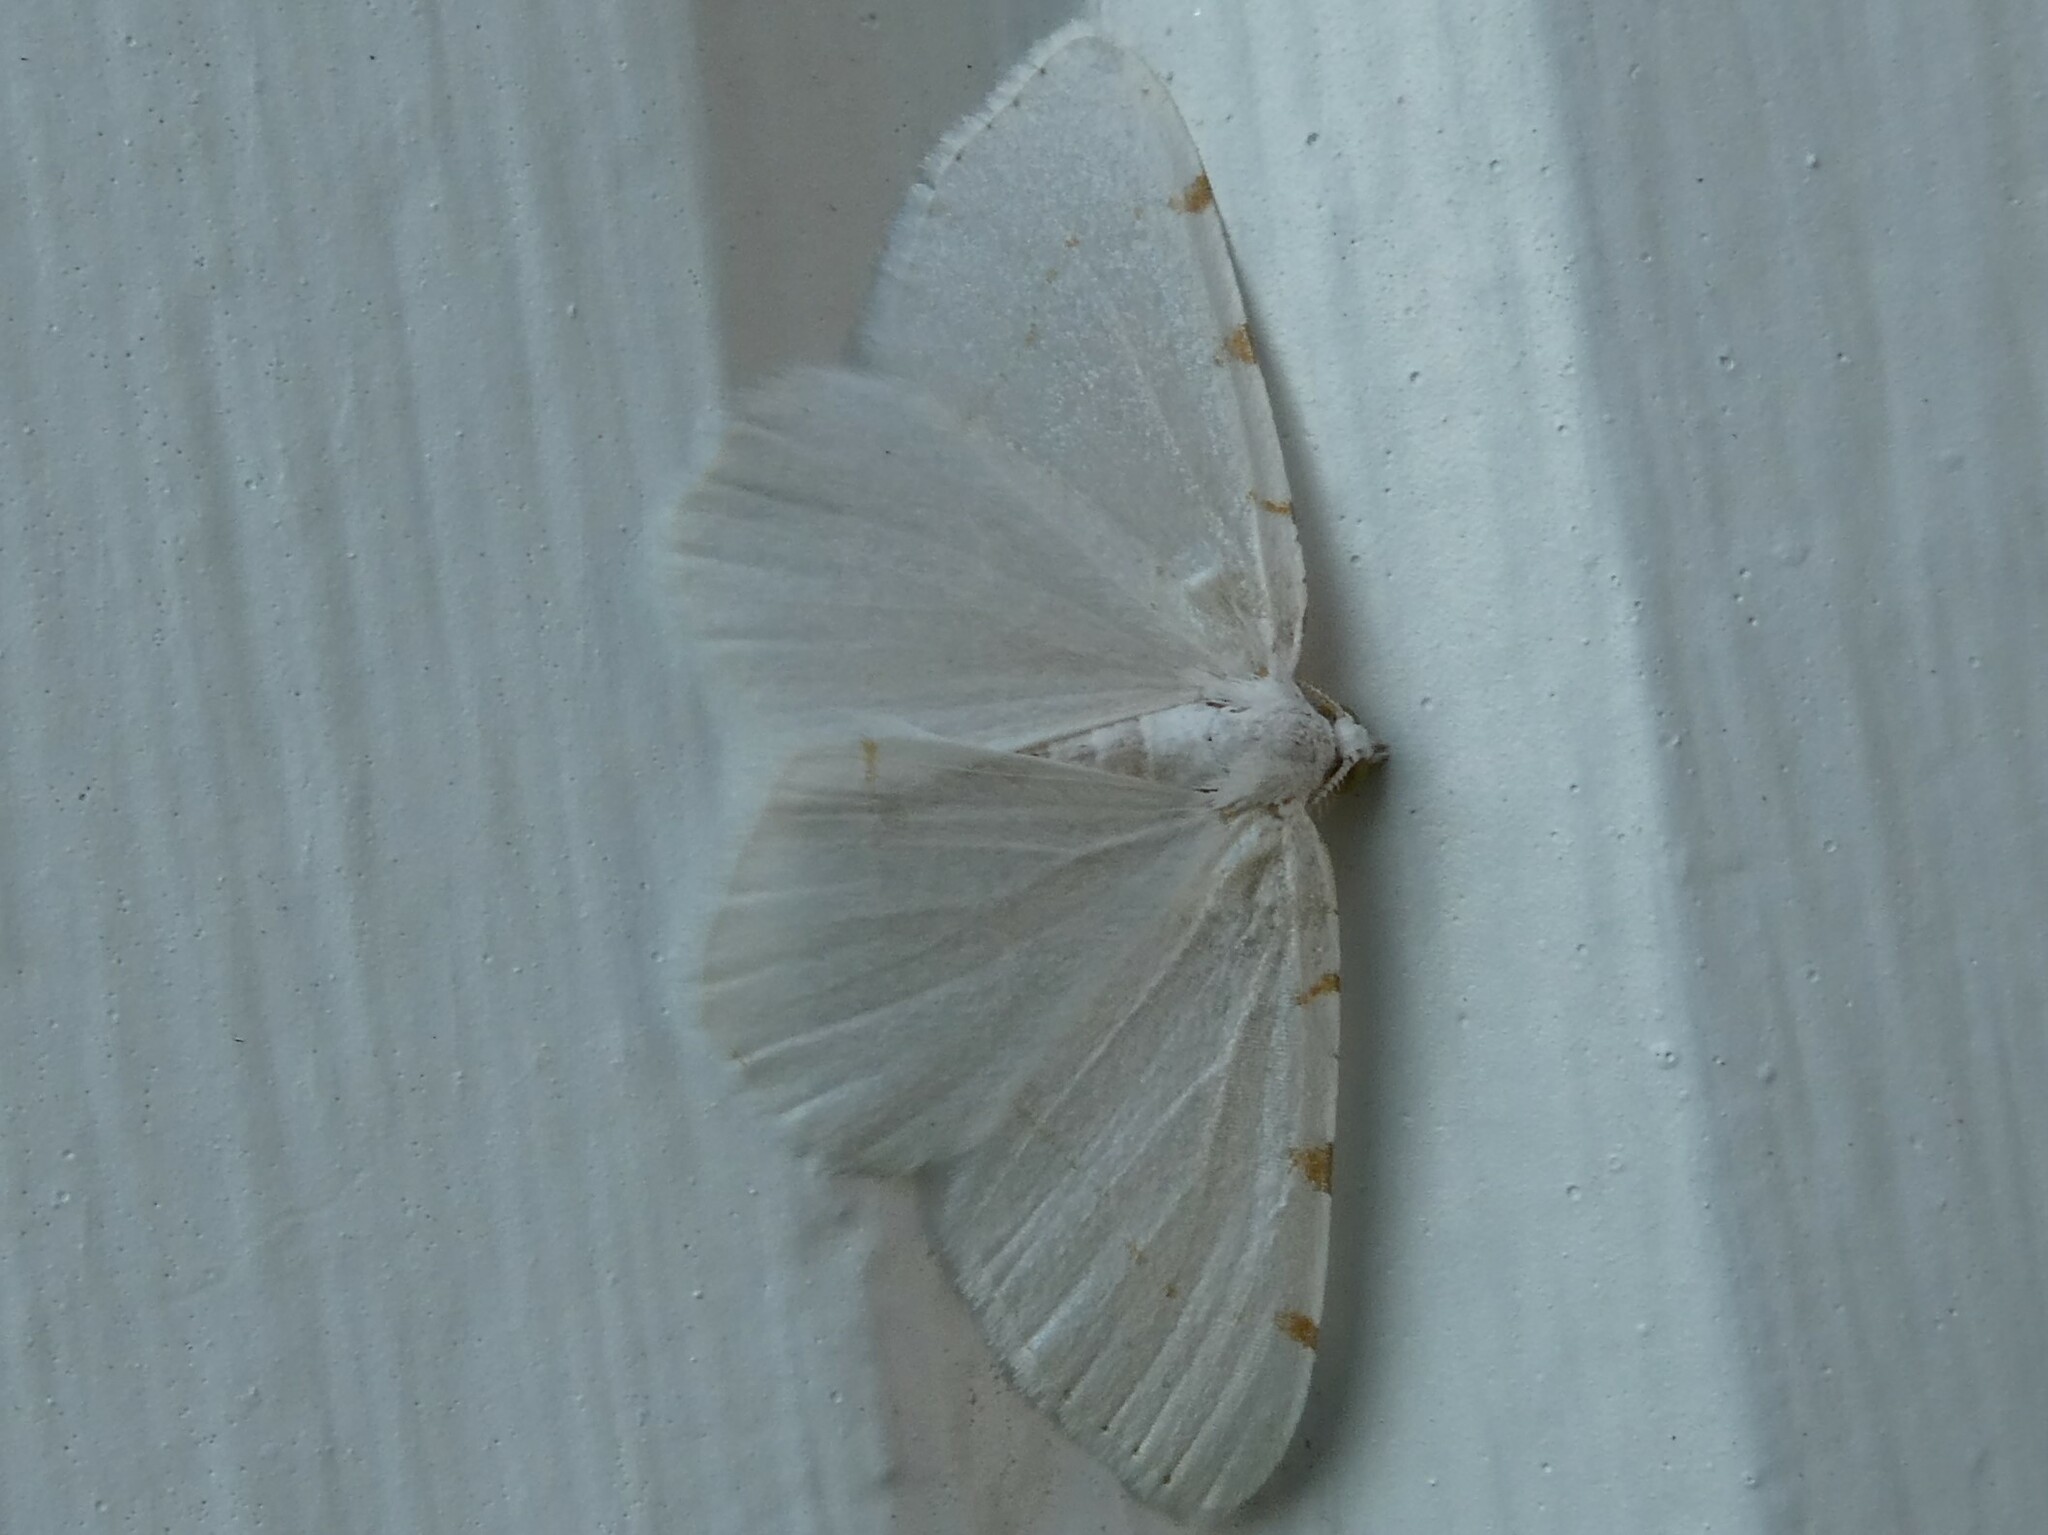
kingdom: Animalia
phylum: Arthropoda
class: Insecta
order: Lepidoptera
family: Geometridae
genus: Macaria
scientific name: Macaria pustularia
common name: Lesser maple spanworm moth
